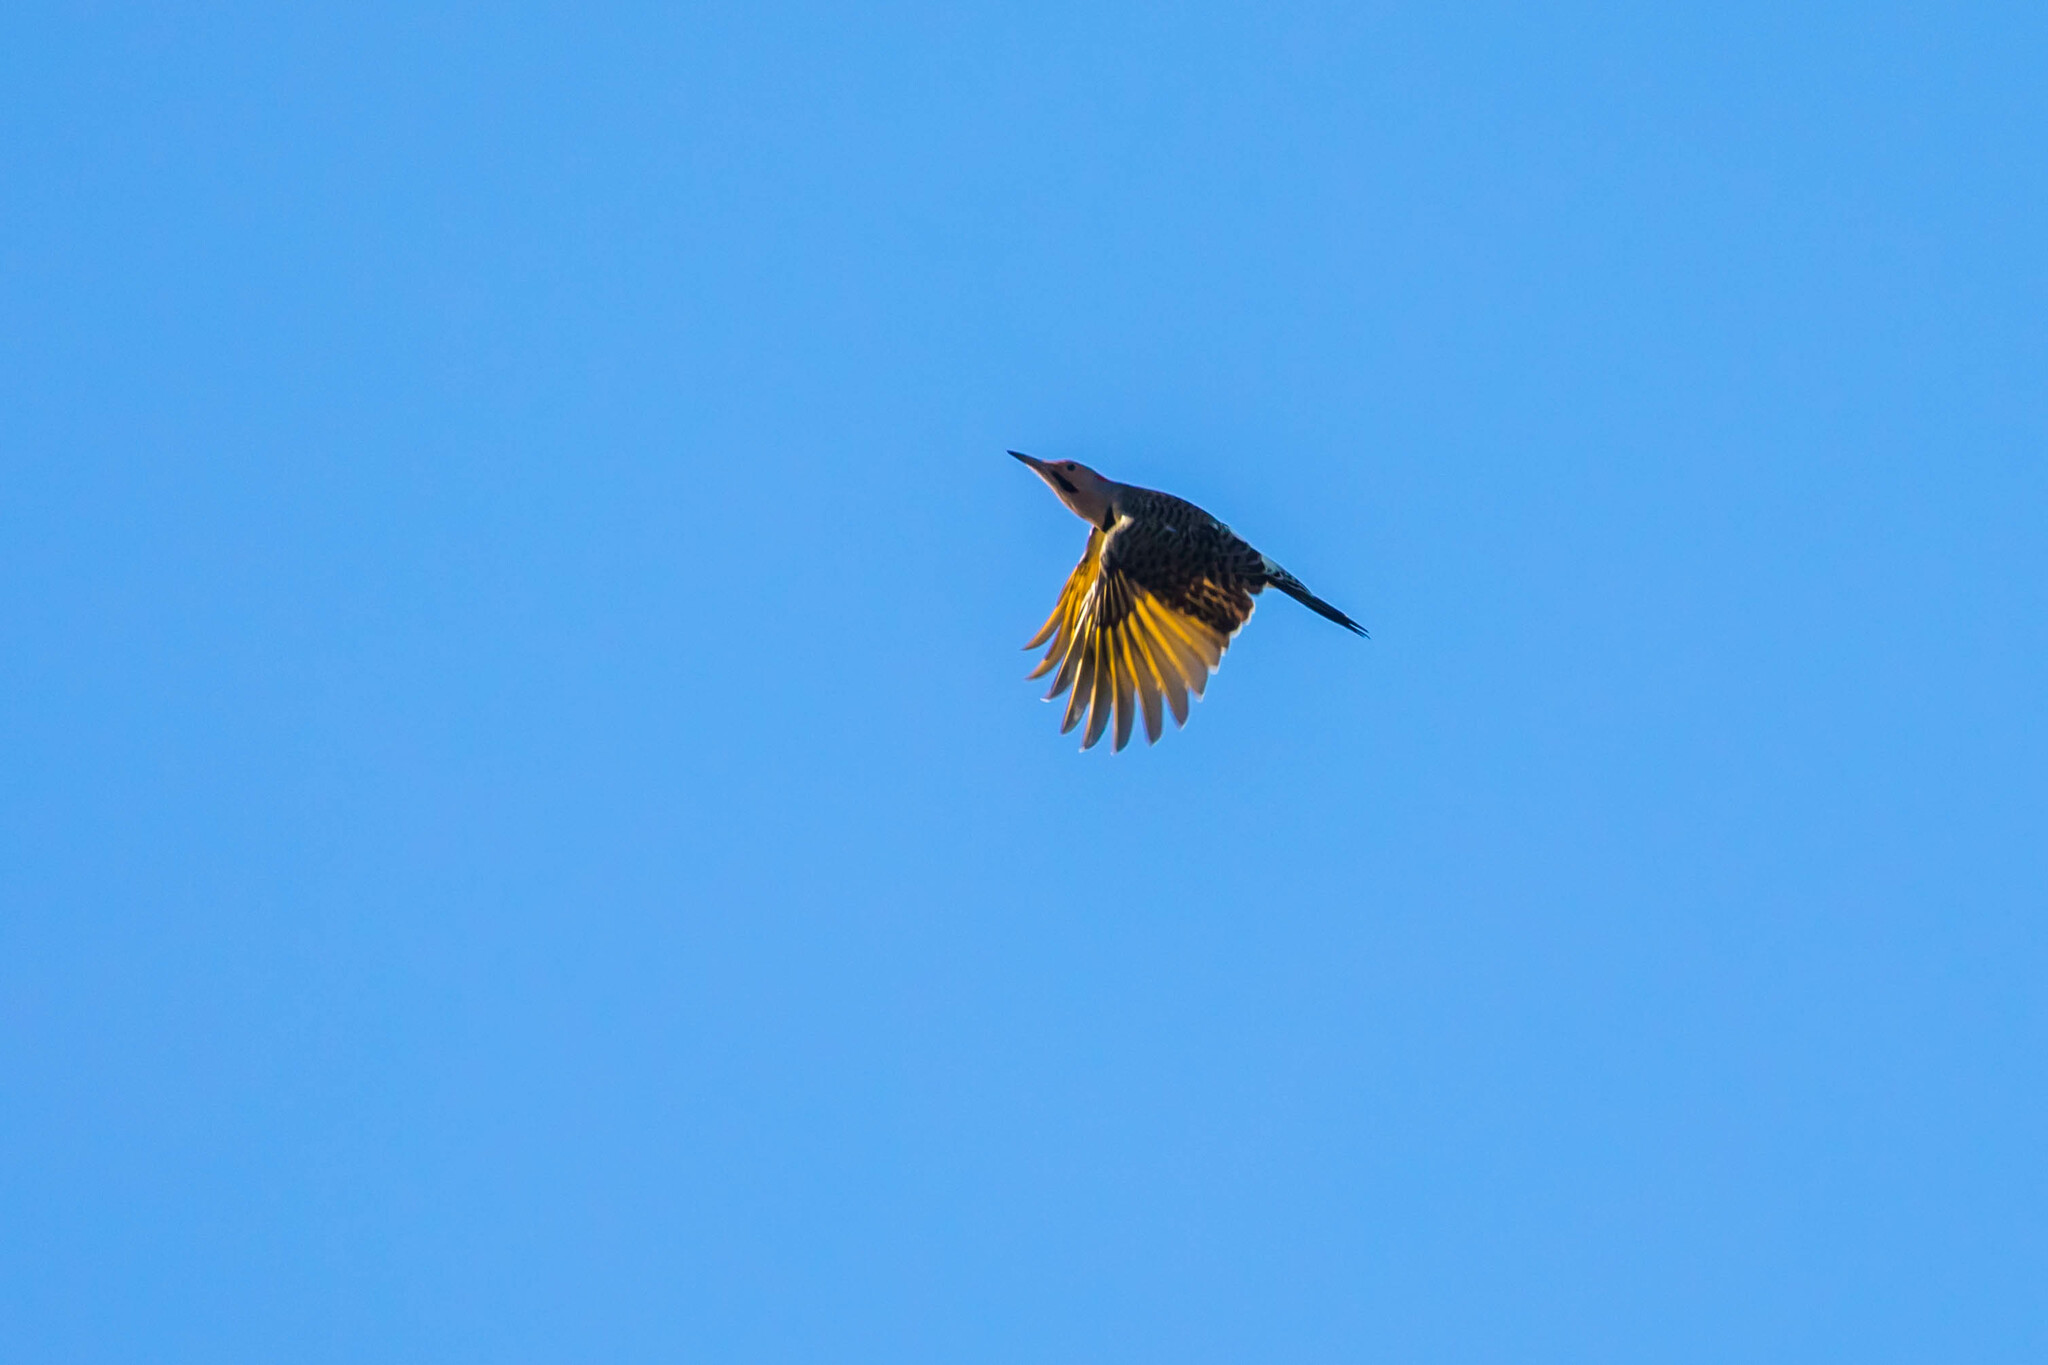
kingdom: Animalia
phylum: Chordata
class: Aves
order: Piciformes
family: Picidae
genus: Colaptes
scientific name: Colaptes auratus
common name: Northern flicker
